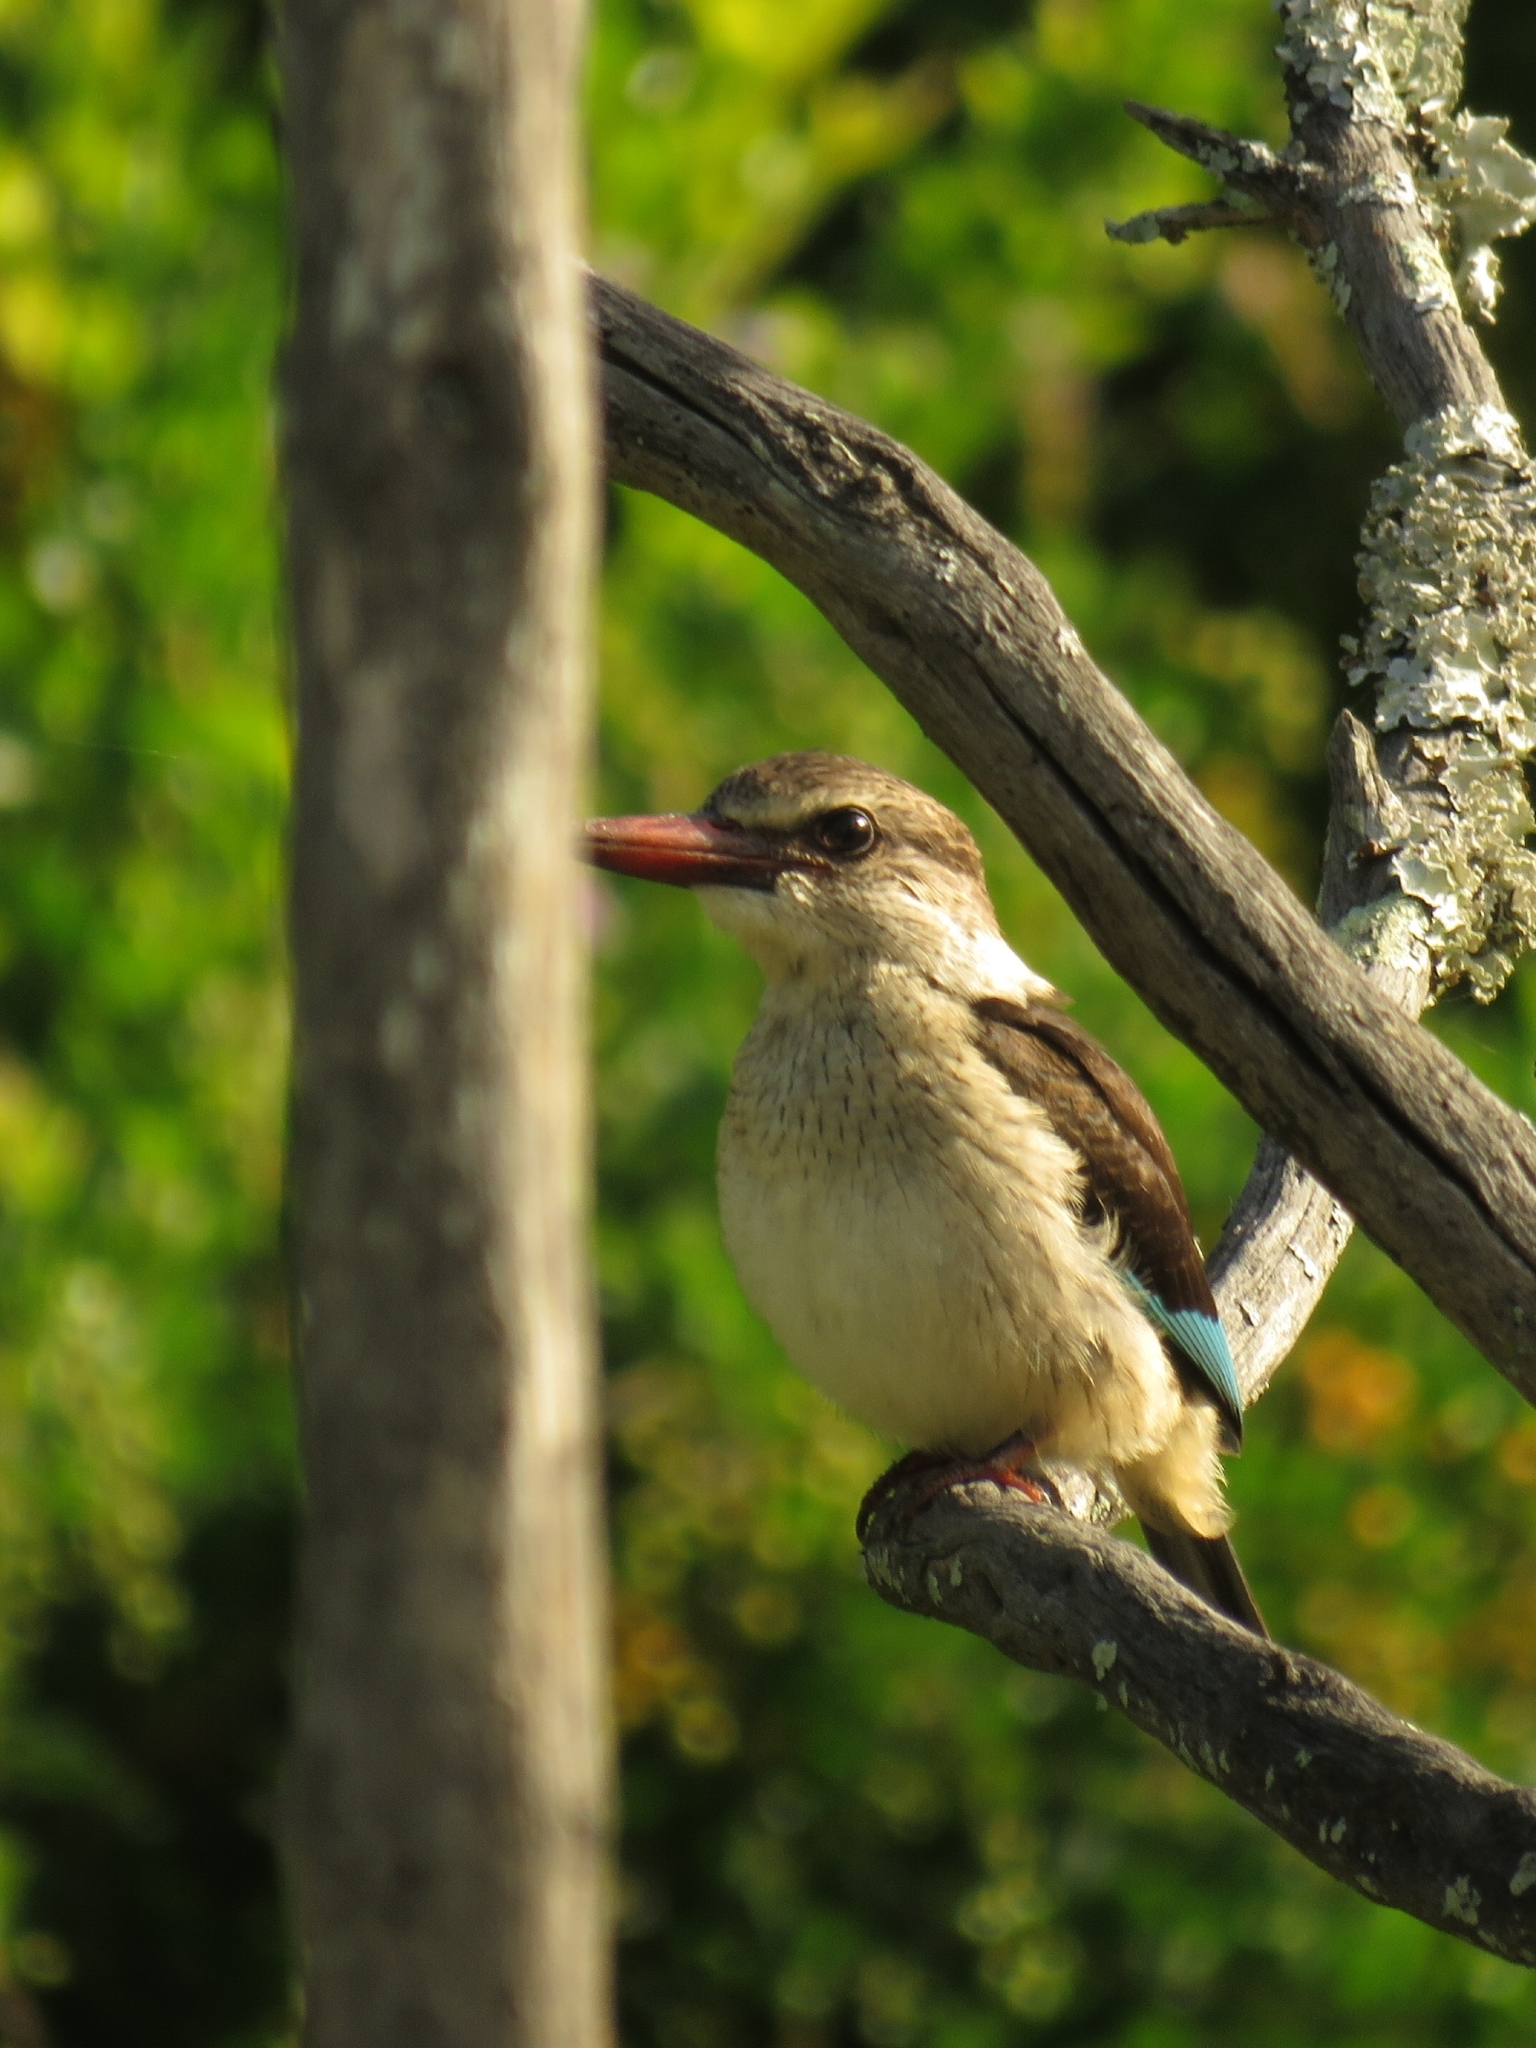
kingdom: Animalia
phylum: Chordata
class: Aves
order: Coraciiformes
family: Alcedinidae
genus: Halcyon
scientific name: Halcyon albiventris
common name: Brown-hooded kingfisher
